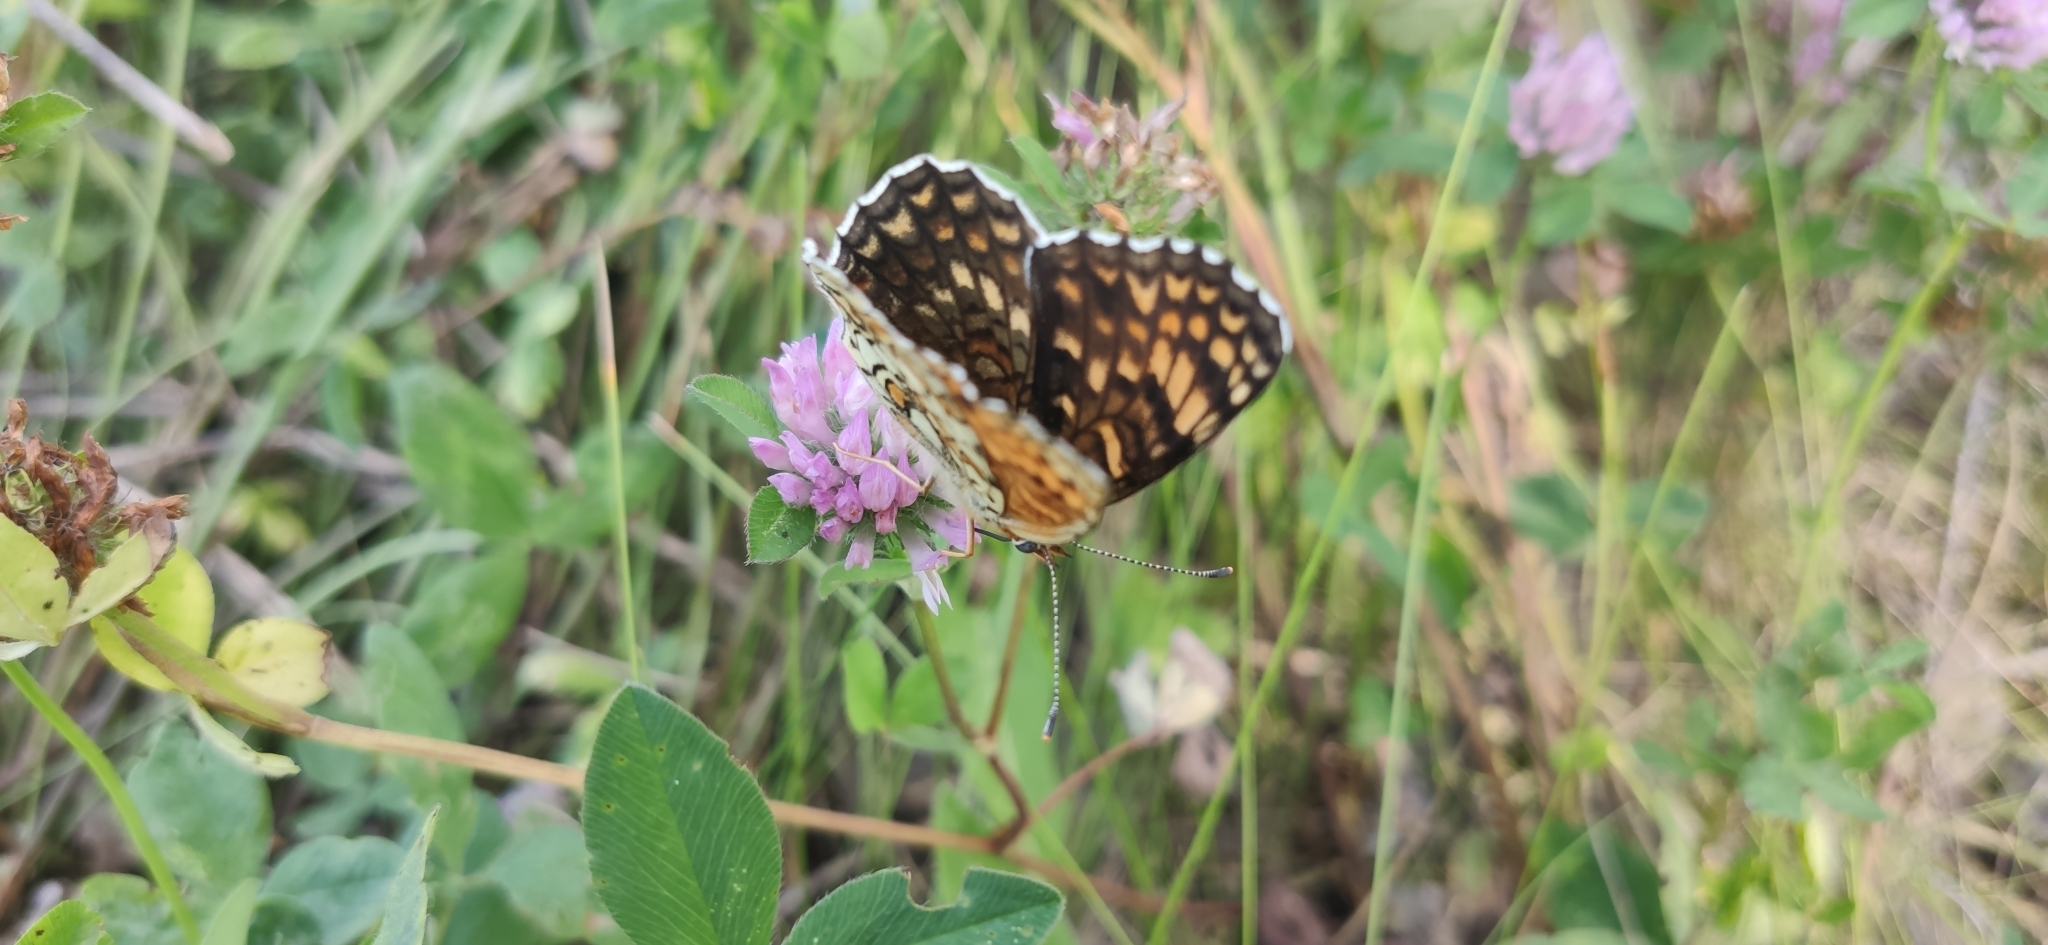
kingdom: Animalia
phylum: Arthropoda
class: Insecta
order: Lepidoptera
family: Nymphalidae
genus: Melitaea
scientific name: Melitaea phoebe
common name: Knapweed fritillary
